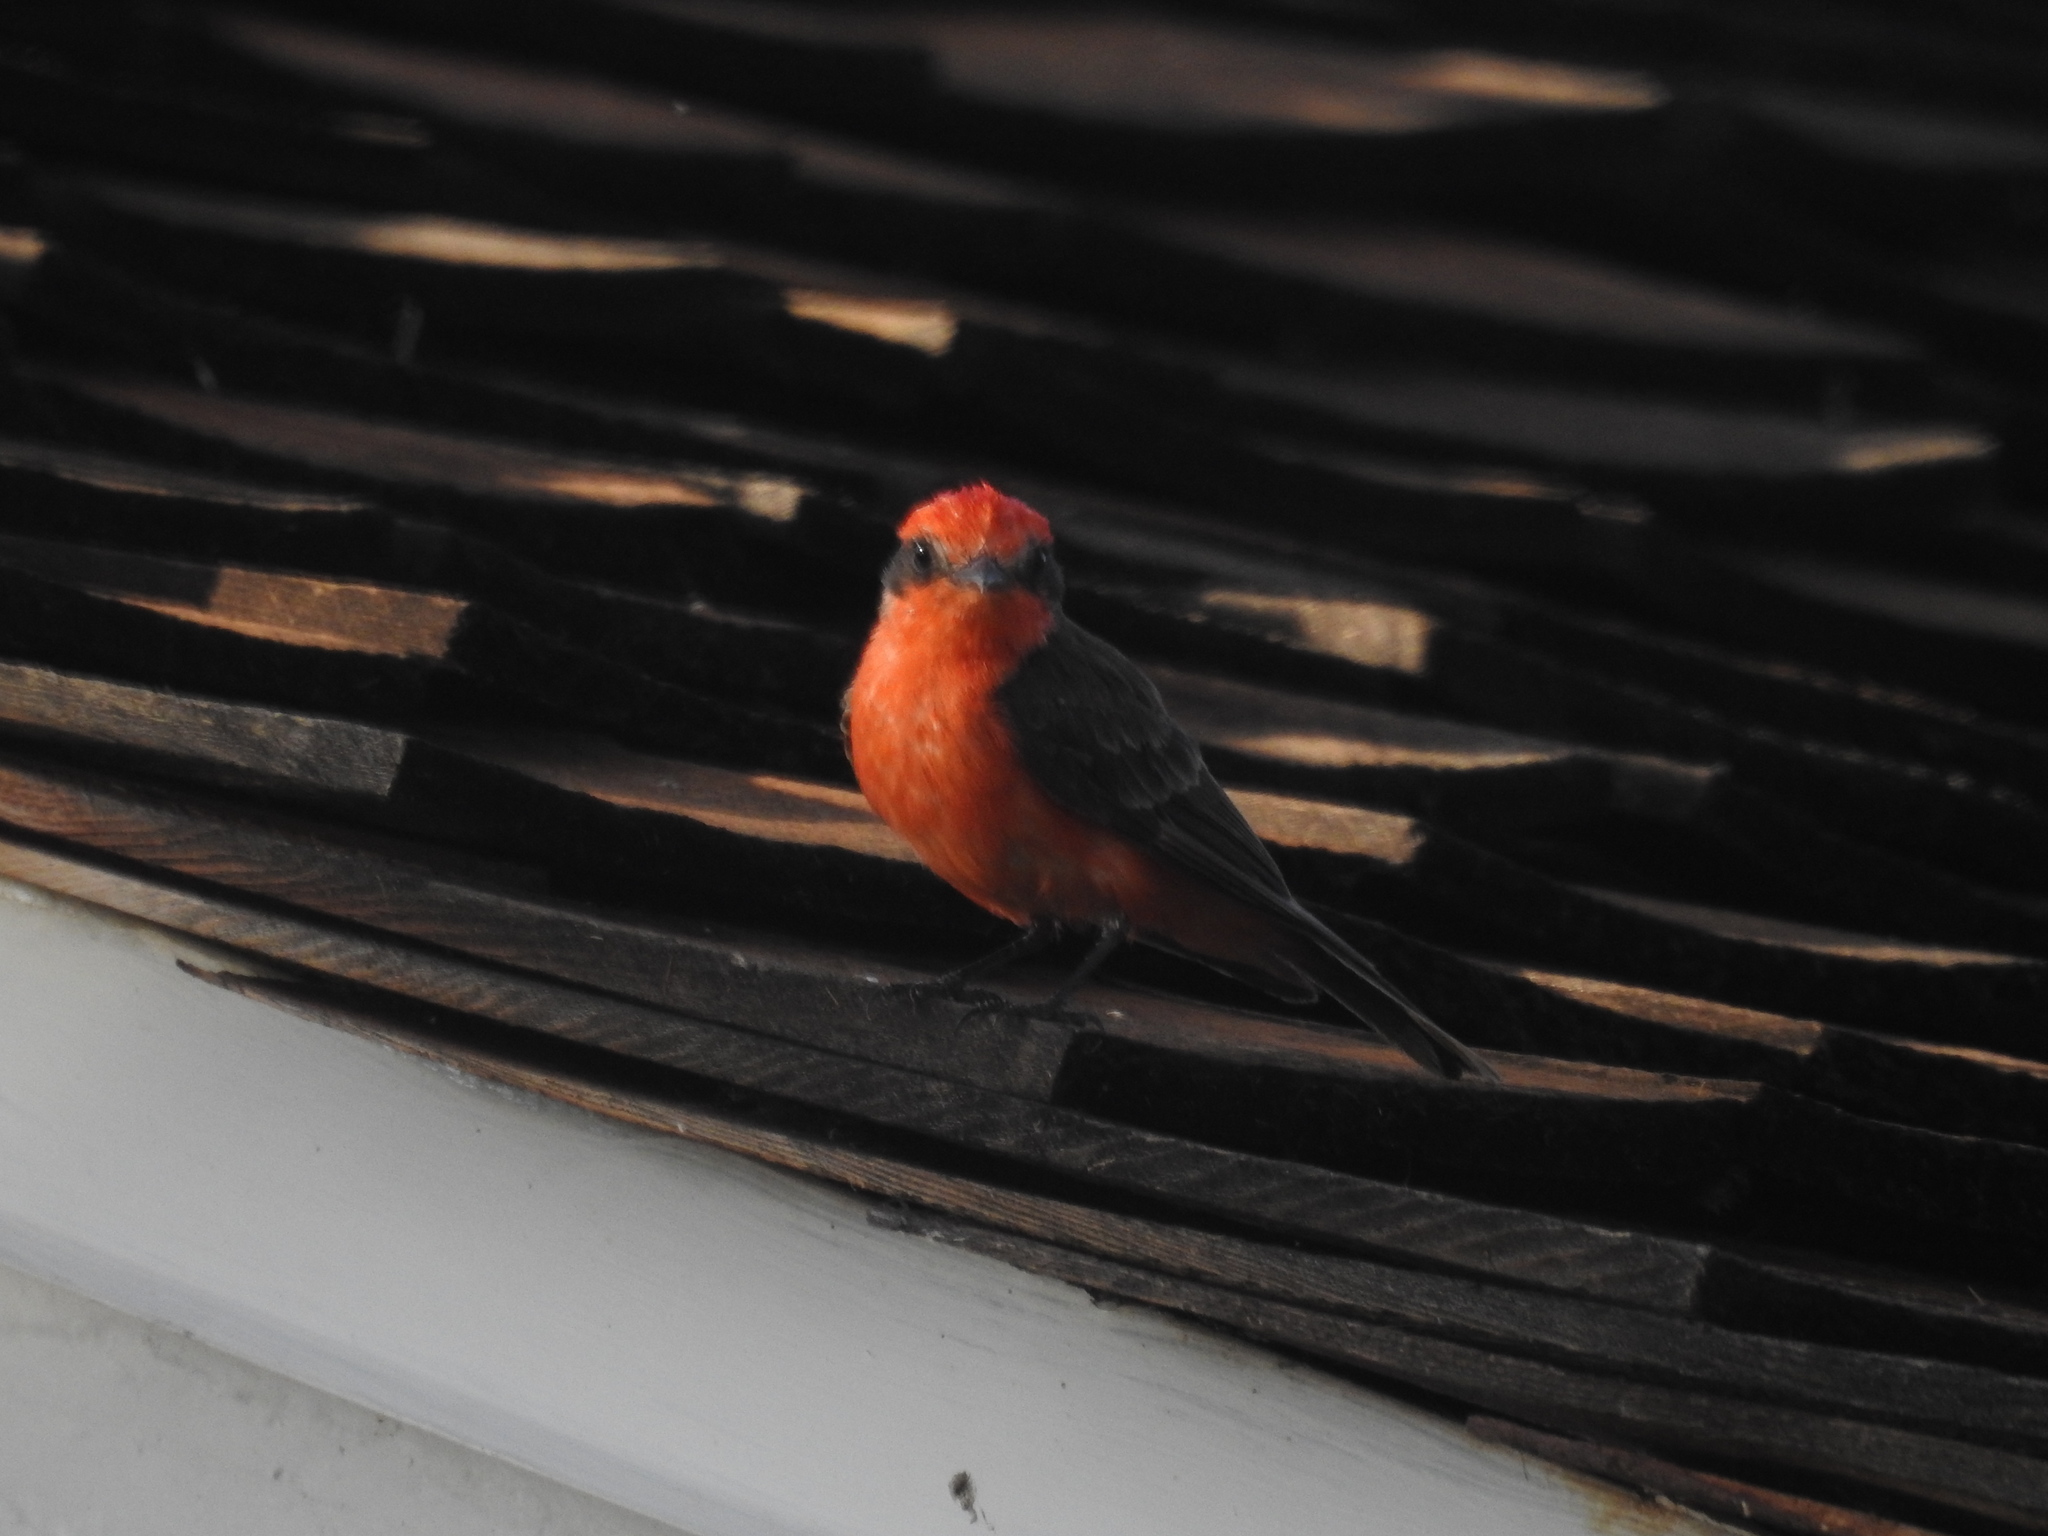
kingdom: Animalia
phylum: Chordata
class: Aves
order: Passeriformes
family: Tyrannidae
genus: Pyrocephalus
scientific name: Pyrocephalus rubinus
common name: Vermilion flycatcher
